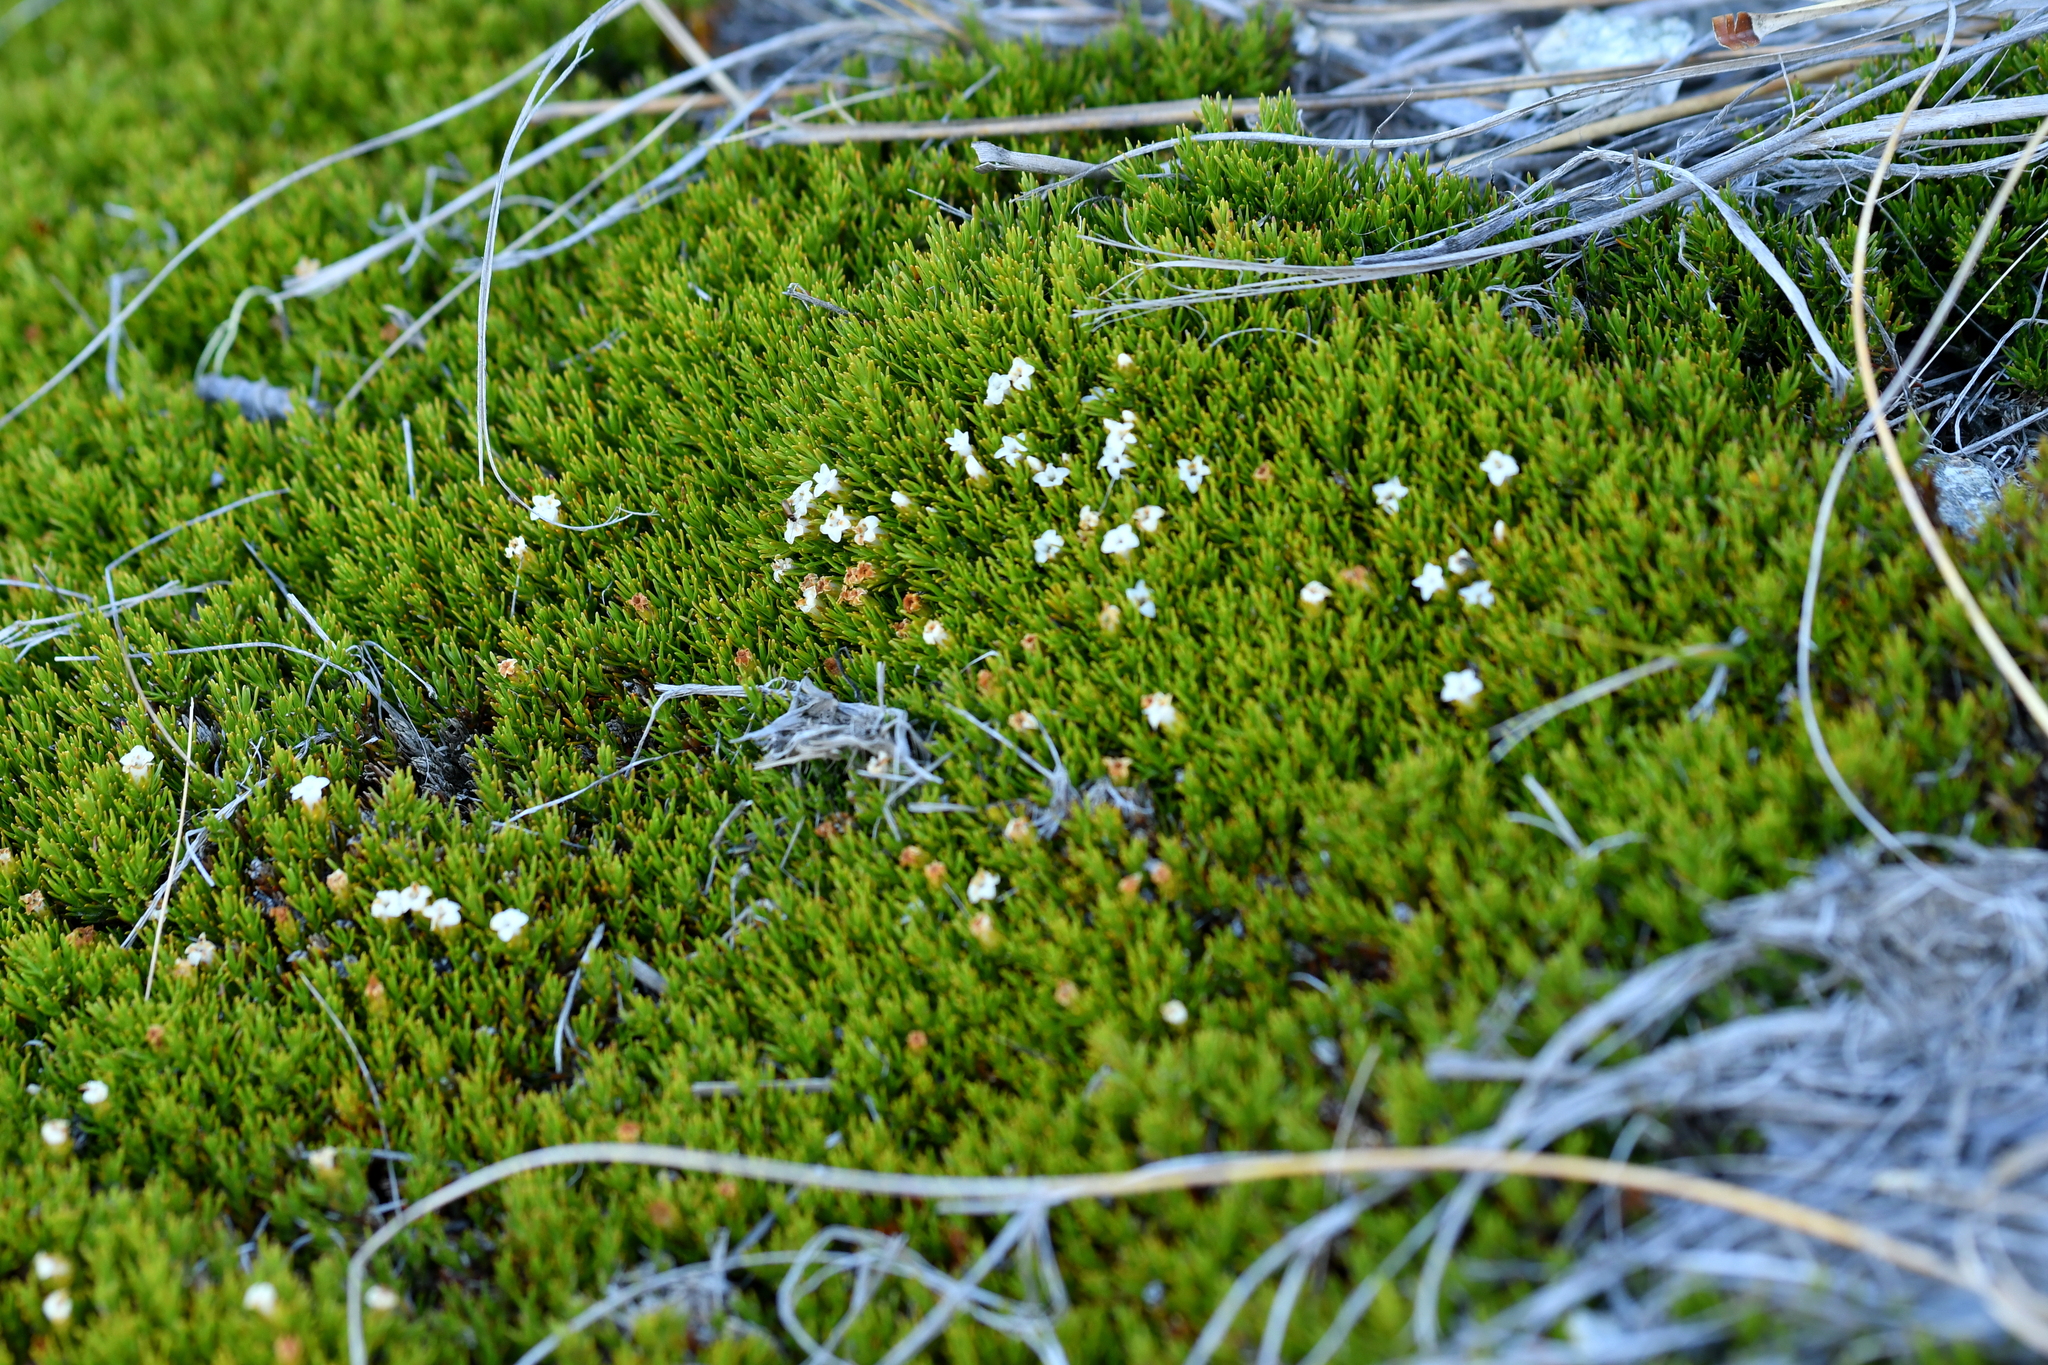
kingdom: Plantae
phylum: Tracheophyta
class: Magnoliopsida
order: Ericales
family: Ericaceae
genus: Dracophyllum
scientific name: Dracophyllum muscoides
